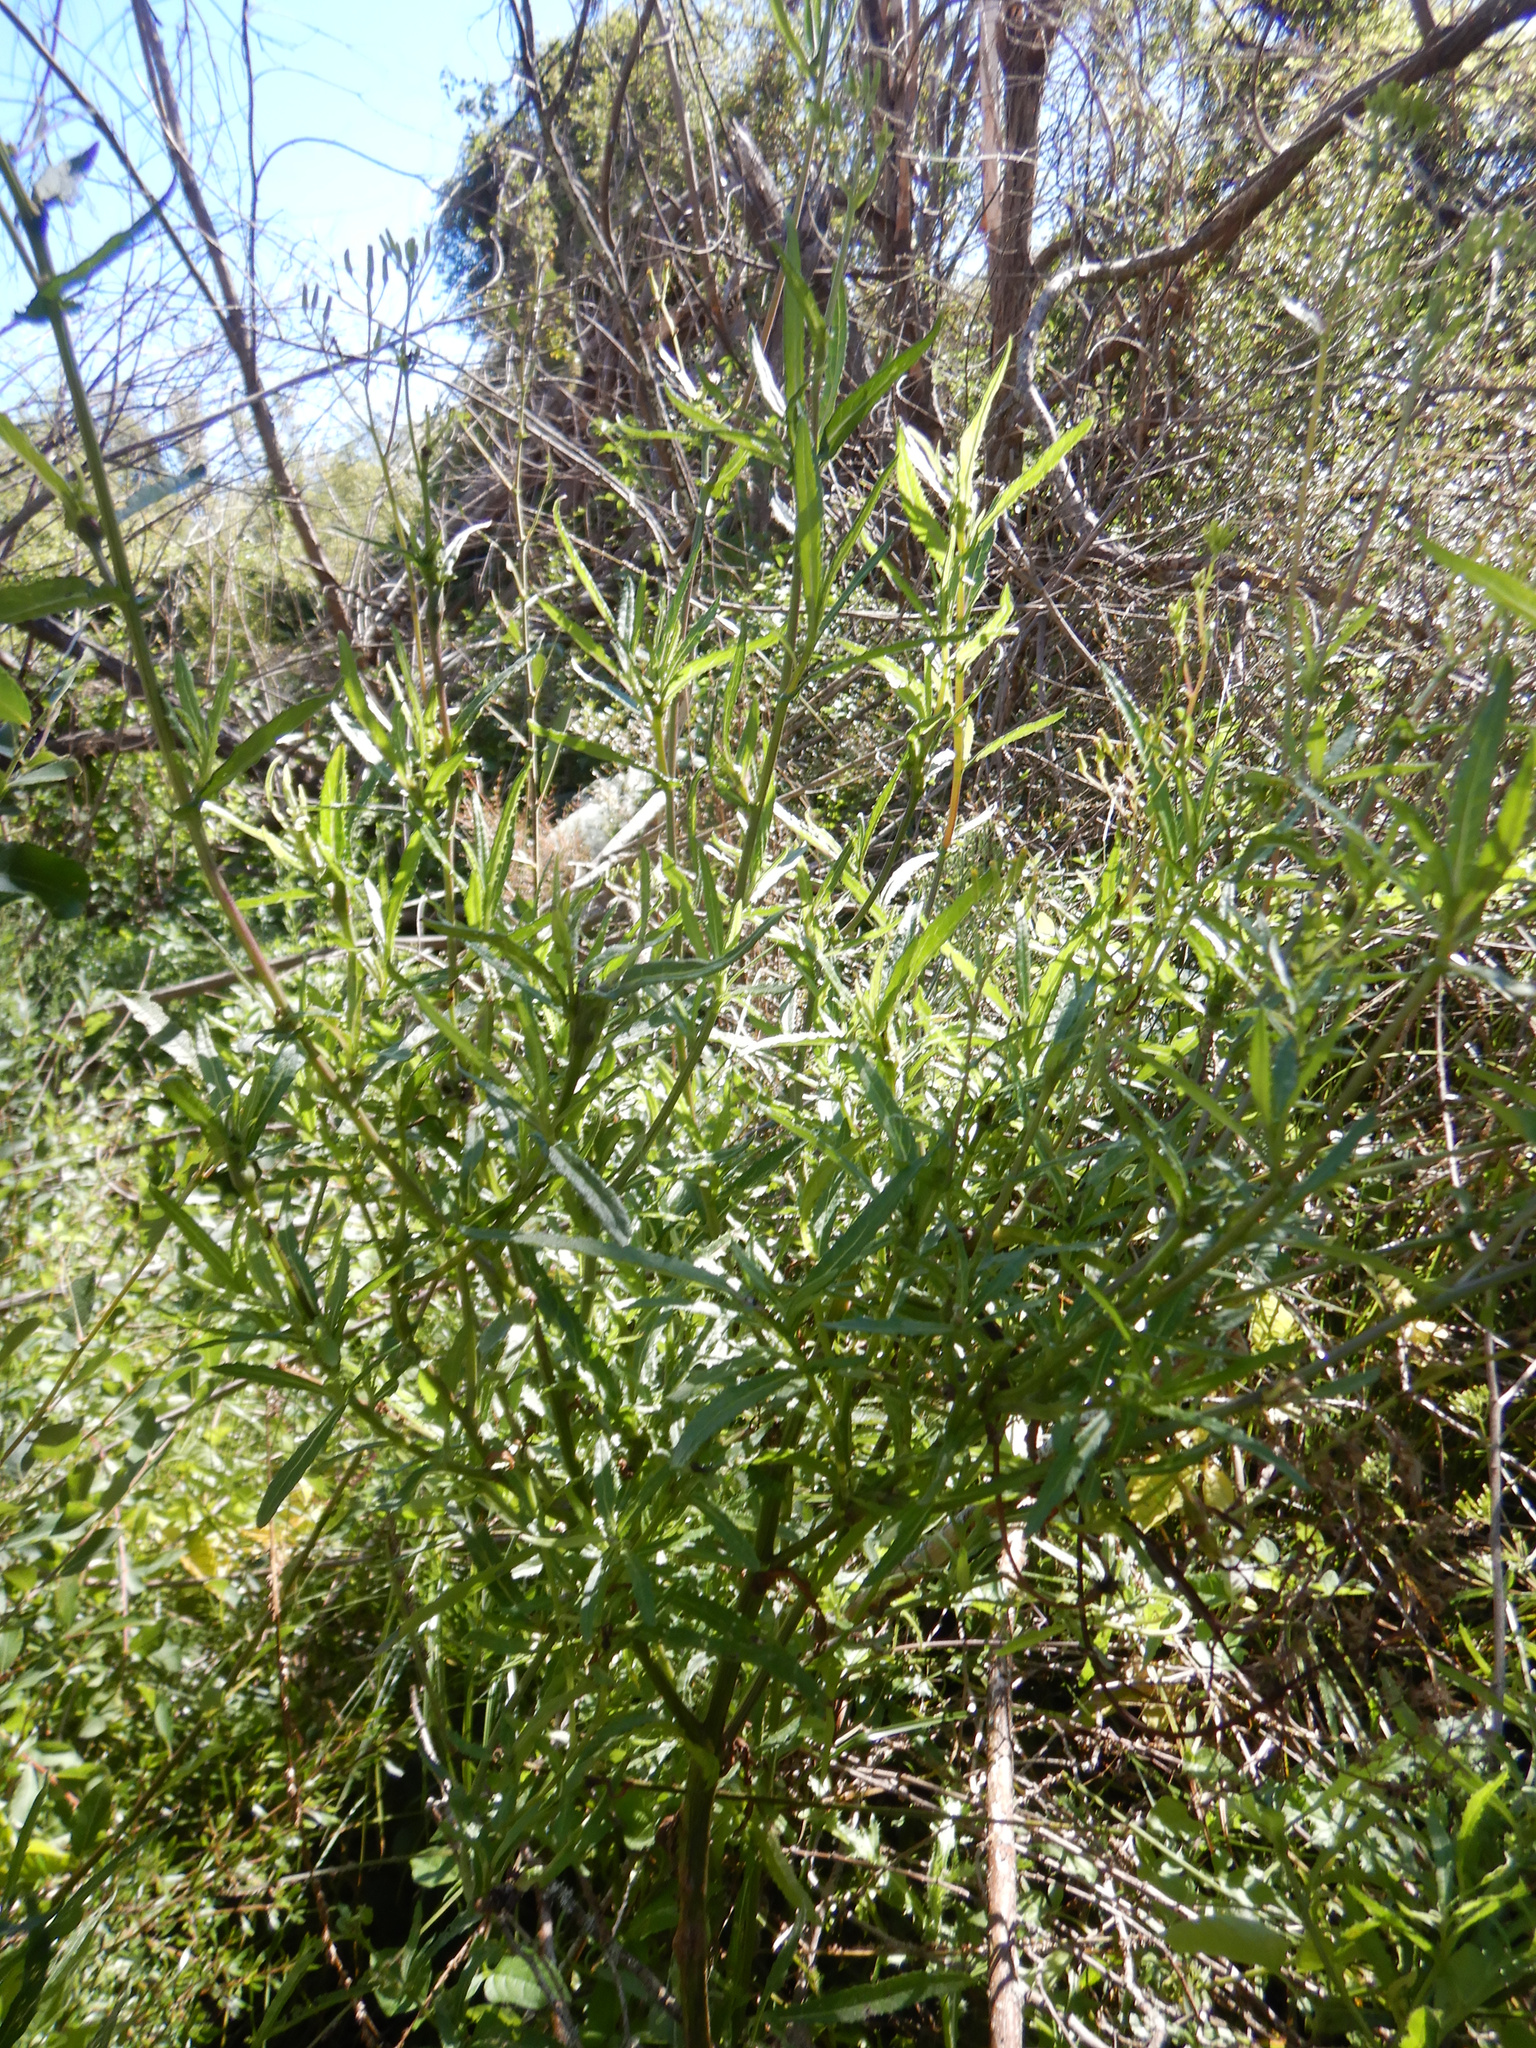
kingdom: Plantae
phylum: Tracheophyta
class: Magnoliopsida
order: Asterales
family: Asteraceae
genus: Senecio
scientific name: Senecio minimus
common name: Toothed fireweed
